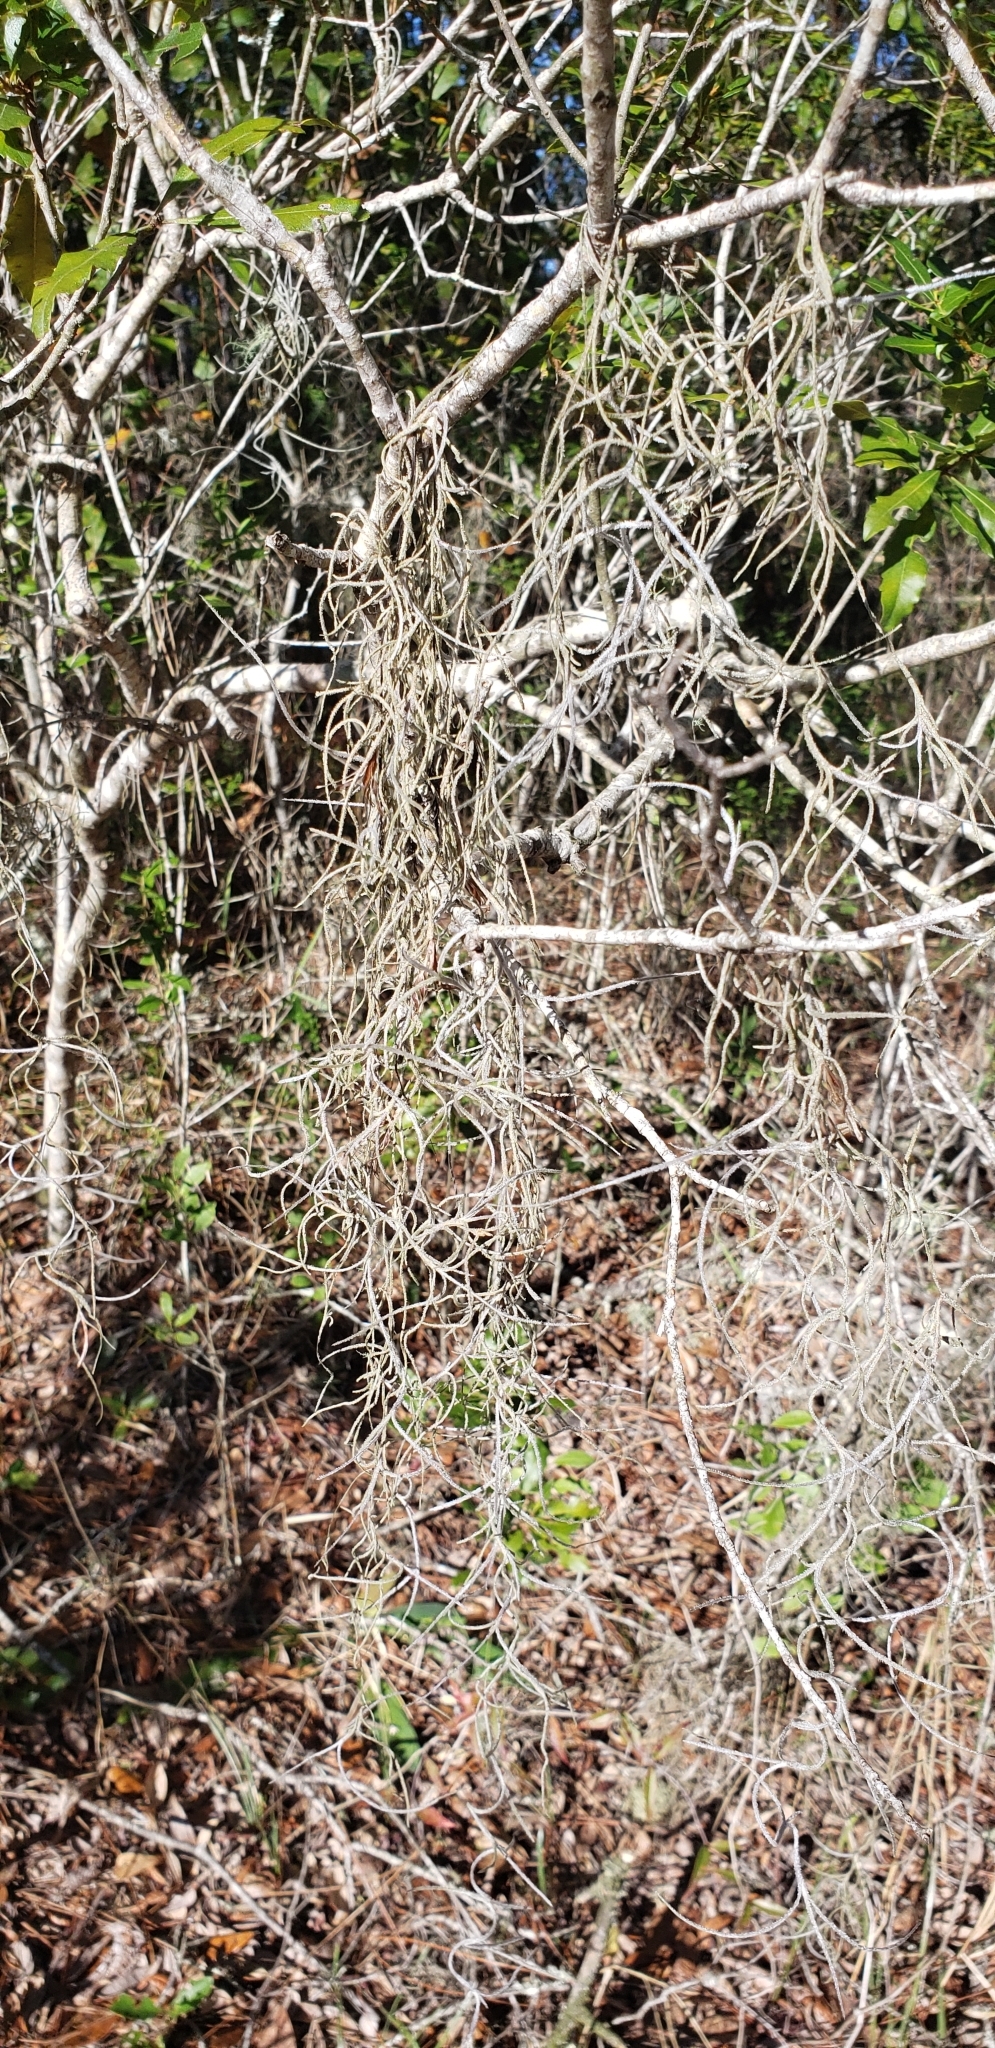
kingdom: Plantae
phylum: Tracheophyta
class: Liliopsida
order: Poales
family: Bromeliaceae
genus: Tillandsia
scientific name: Tillandsia usneoides
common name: Spanish moss
